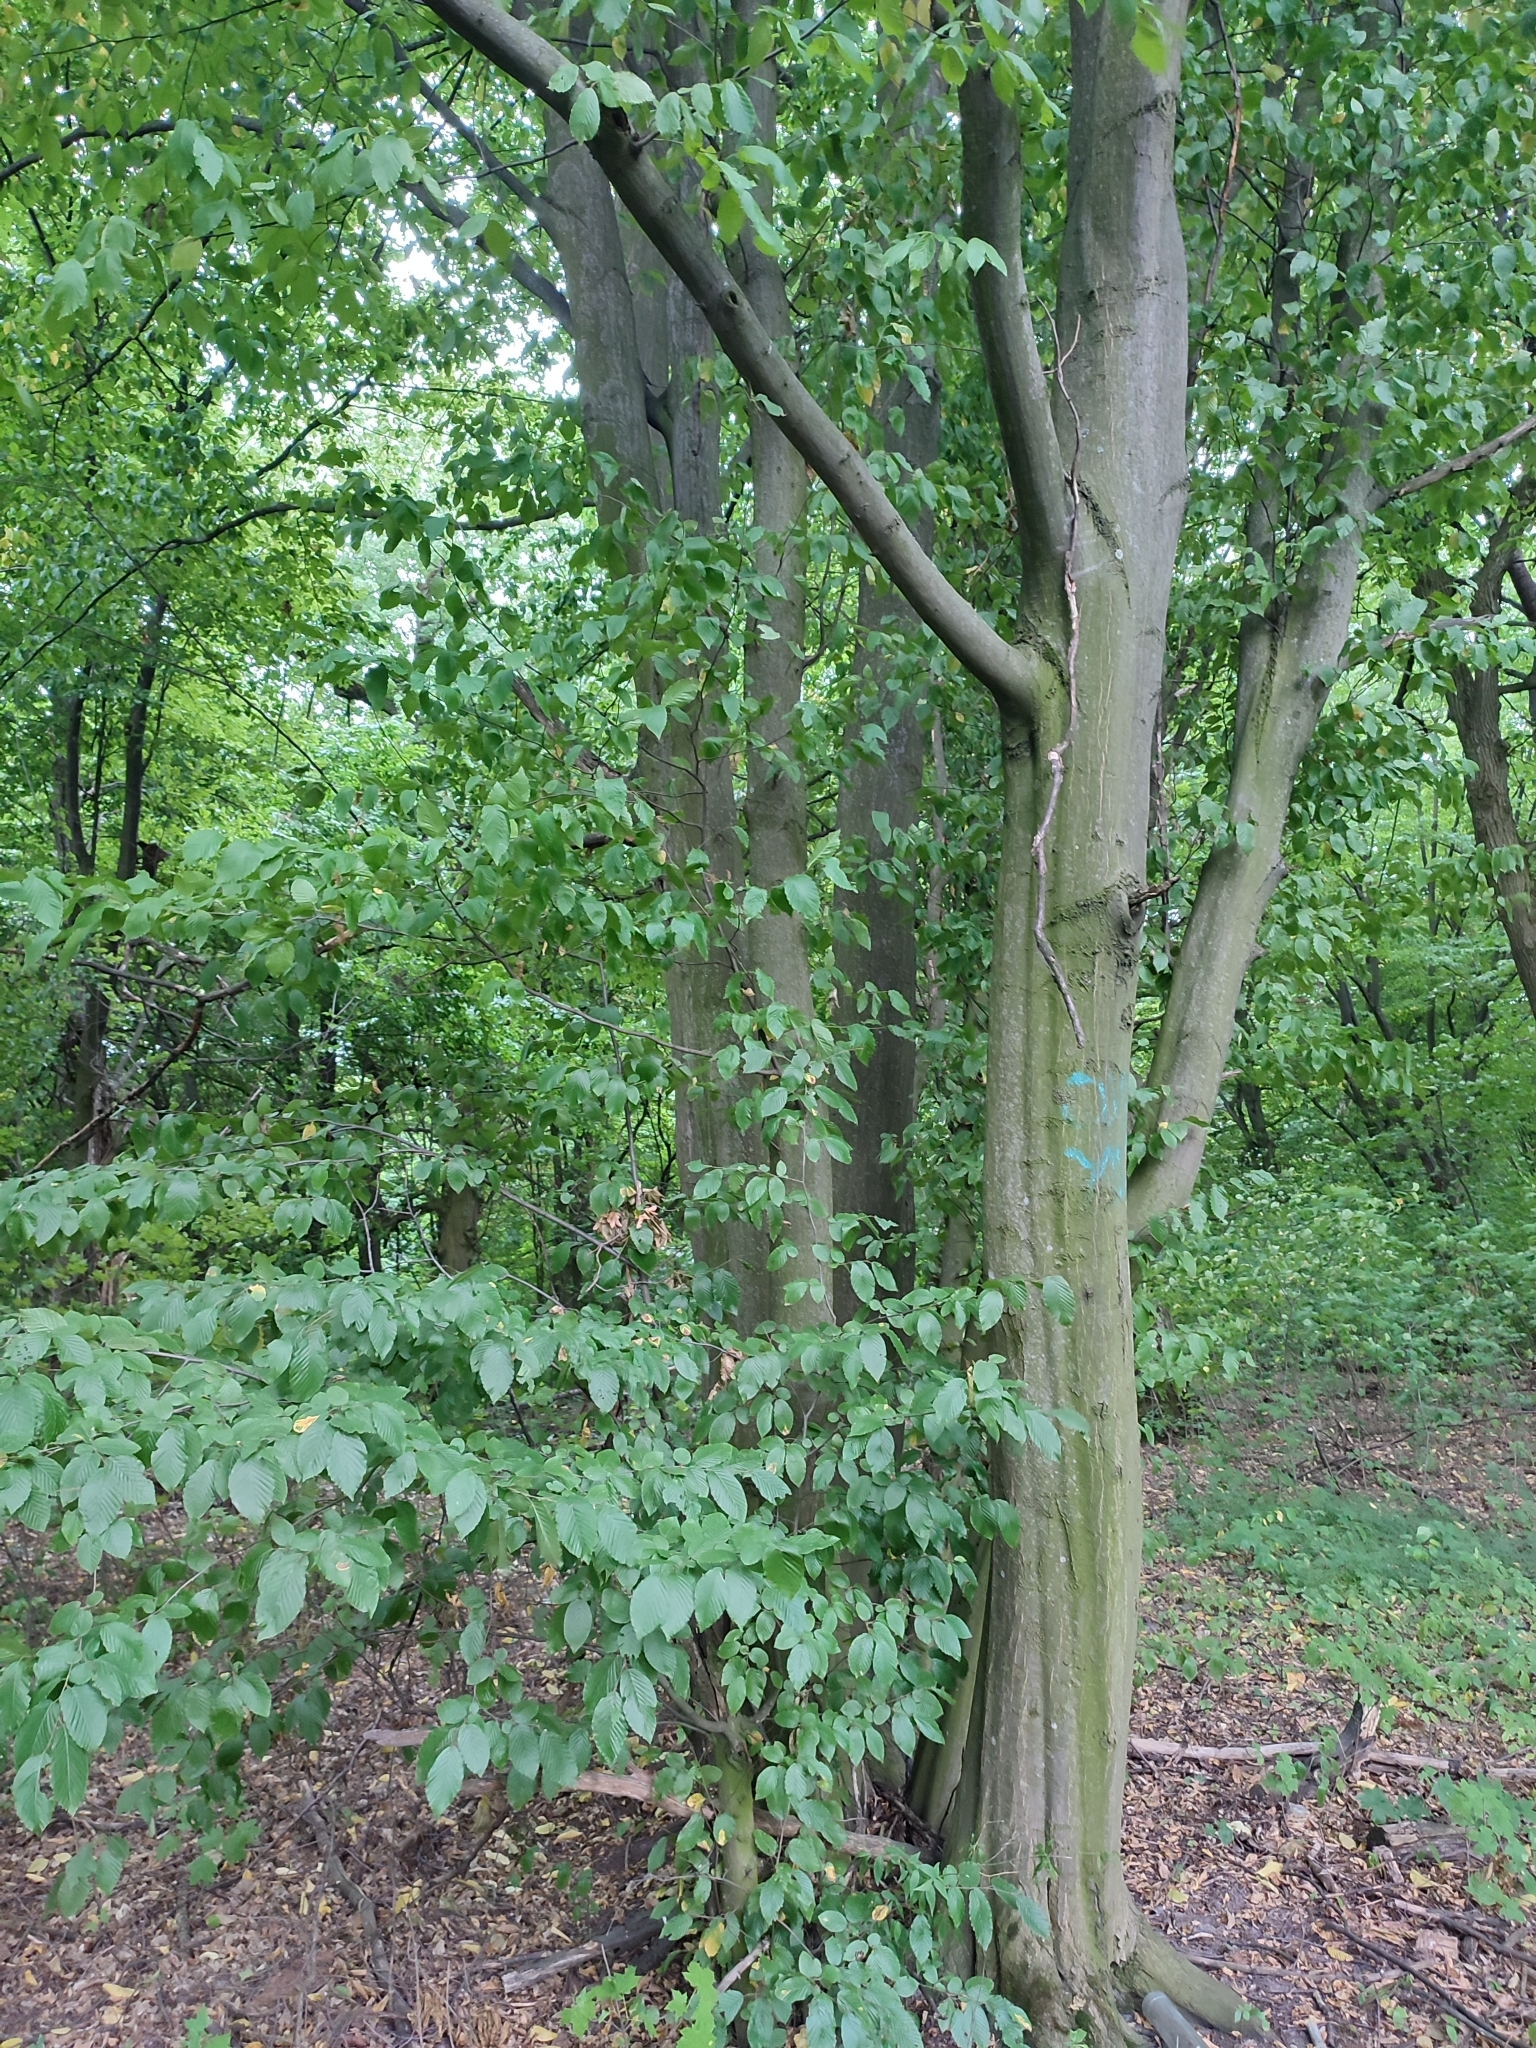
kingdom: Plantae
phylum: Tracheophyta
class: Magnoliopsida
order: Fagales
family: Betulaceae
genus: Carpinus
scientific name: Carpinus betulus
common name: Hornbeam
